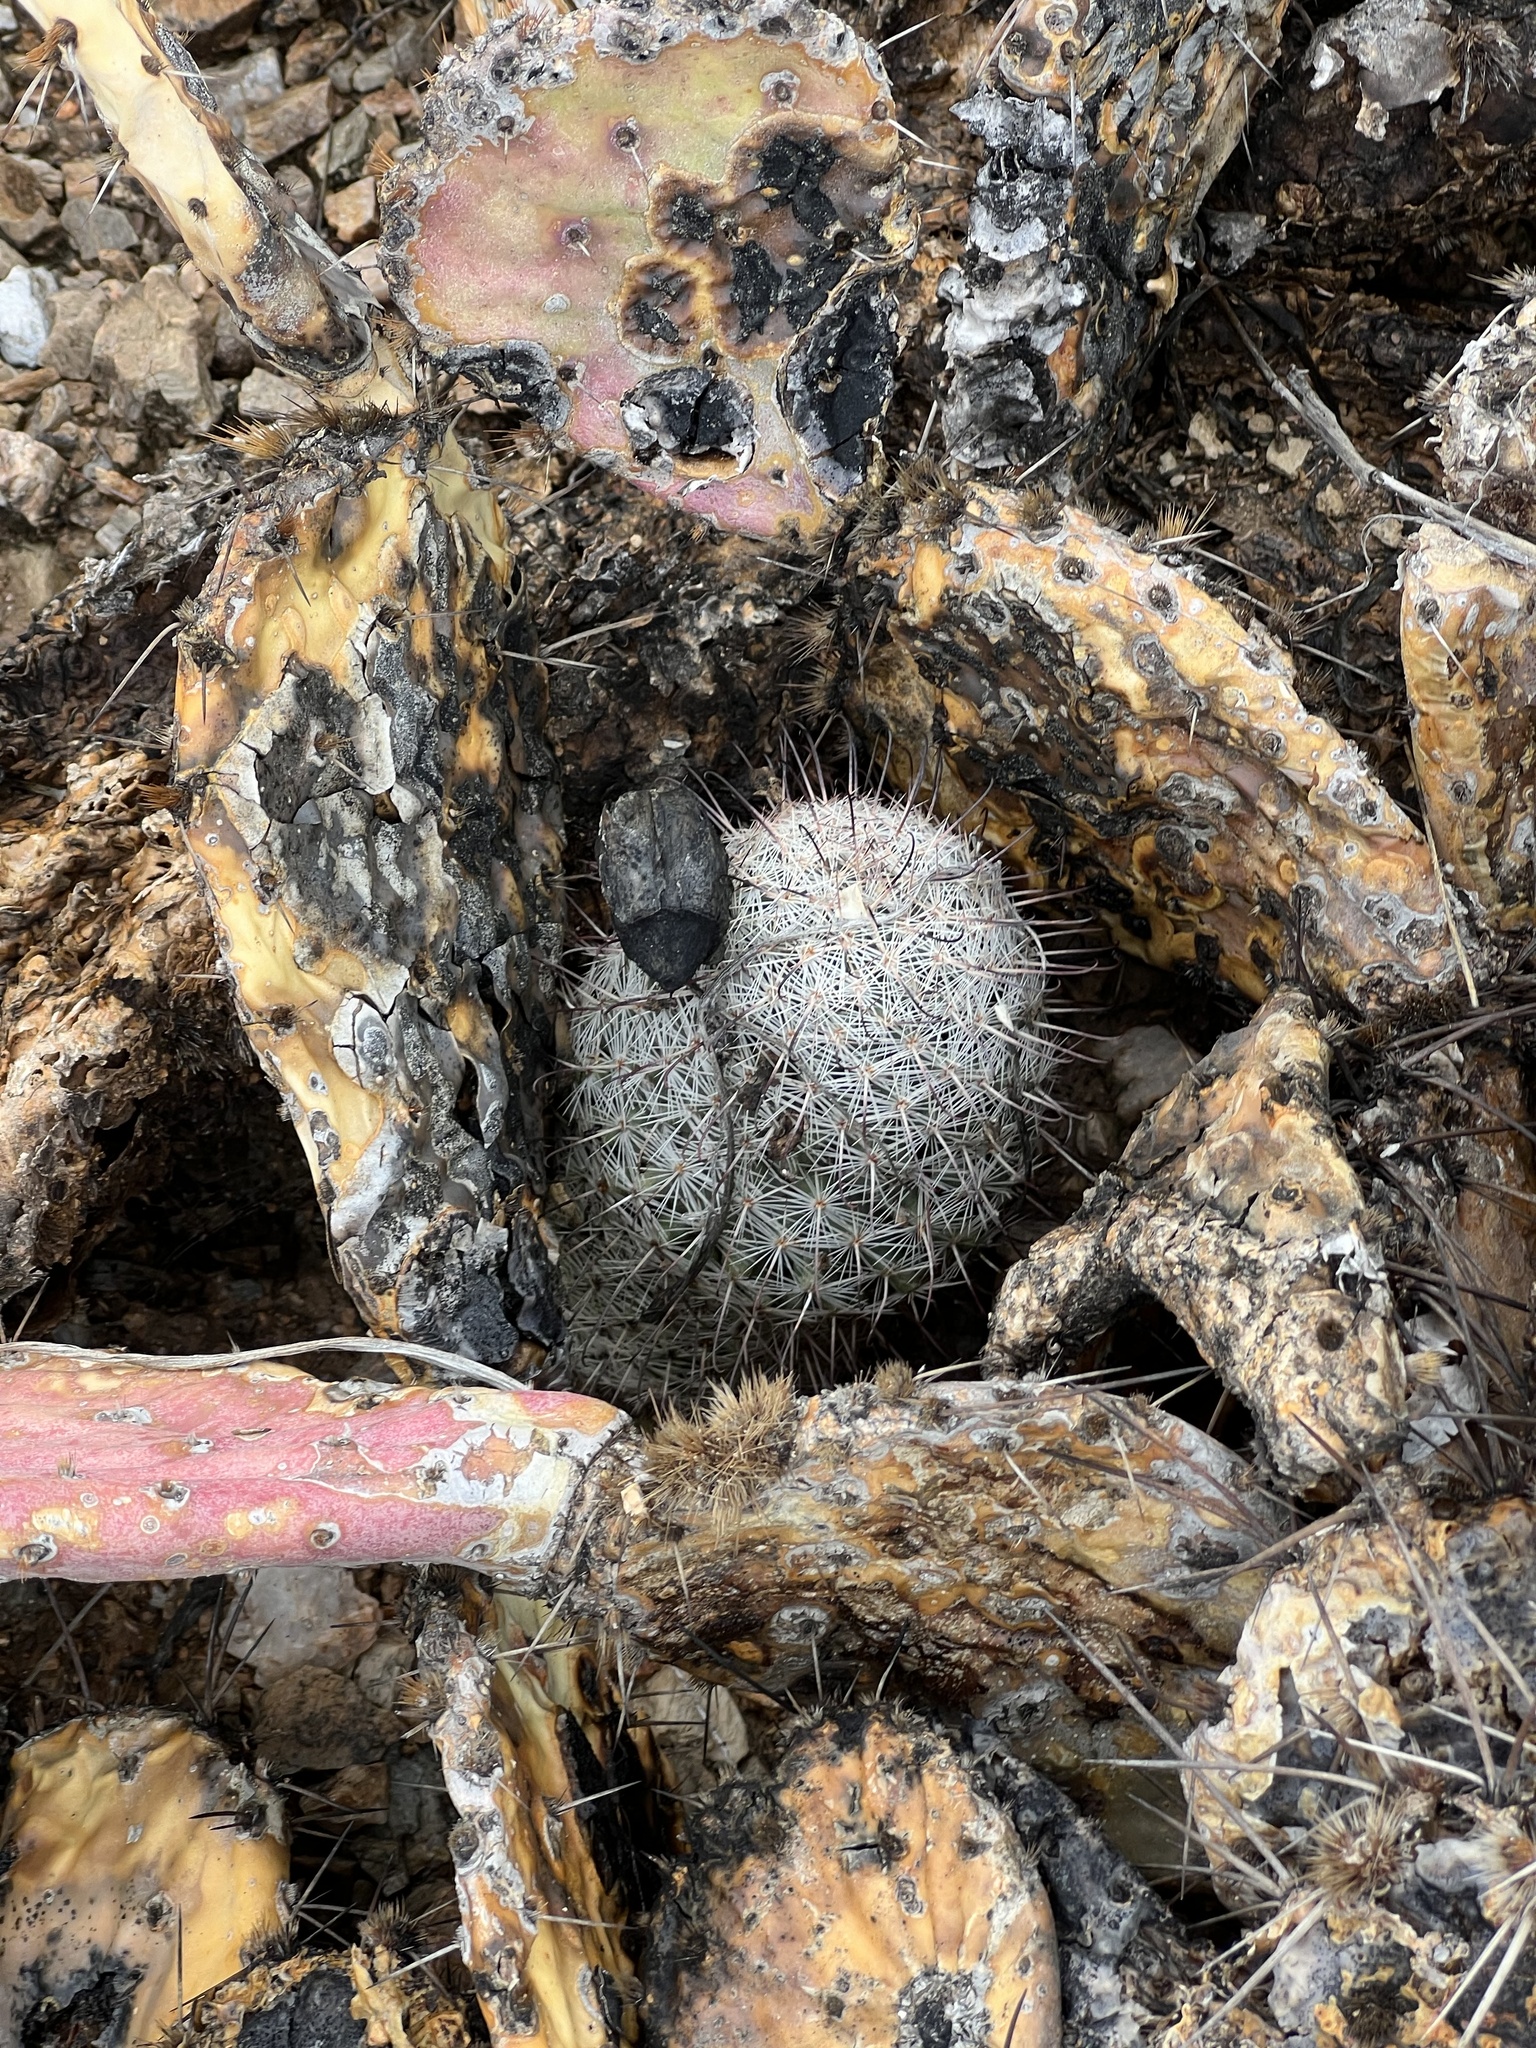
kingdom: Plantae
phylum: Tracheophyta
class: Magnoliopsida
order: Caryophyllales
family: Cactaceae
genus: Cochemiea
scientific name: Cochemiea grahamii
